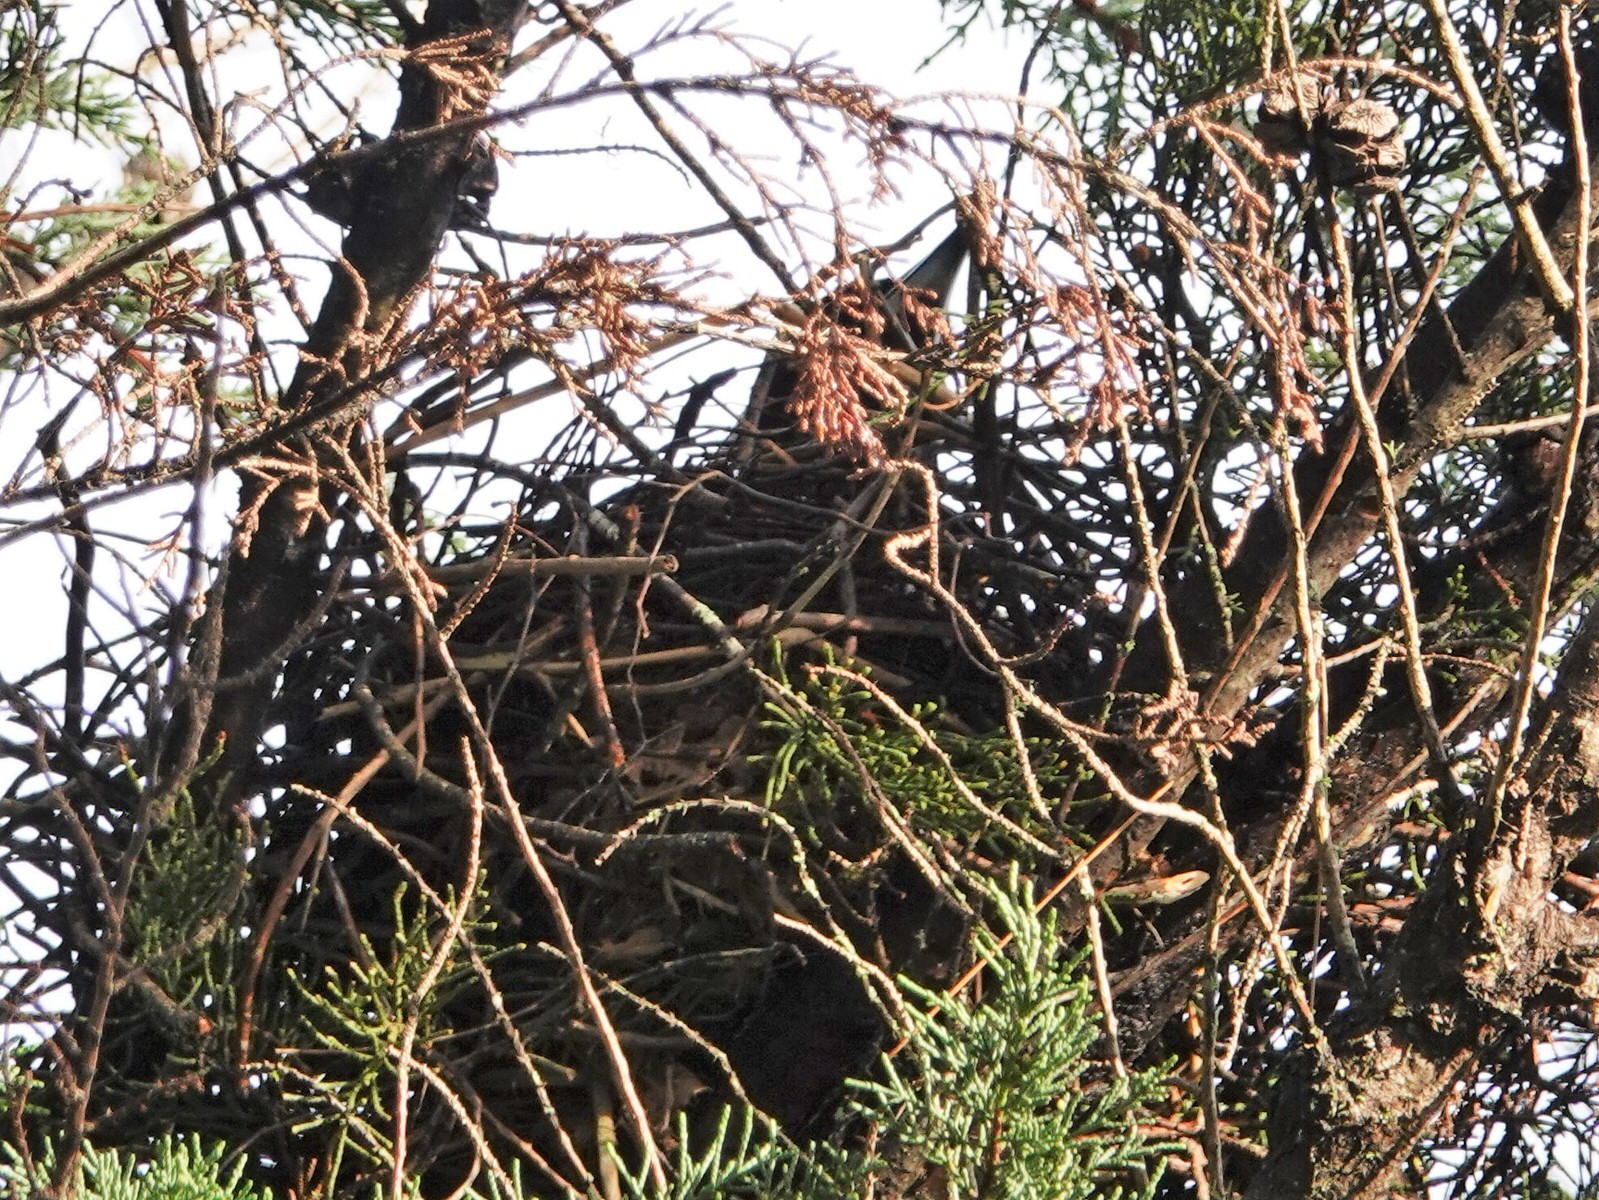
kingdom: Animalia
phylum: Chordata
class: Aves
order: Passeriformes
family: Cracticidae
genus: Gymnorhina
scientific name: Gymnorhina tibicen
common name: Australian magpie
